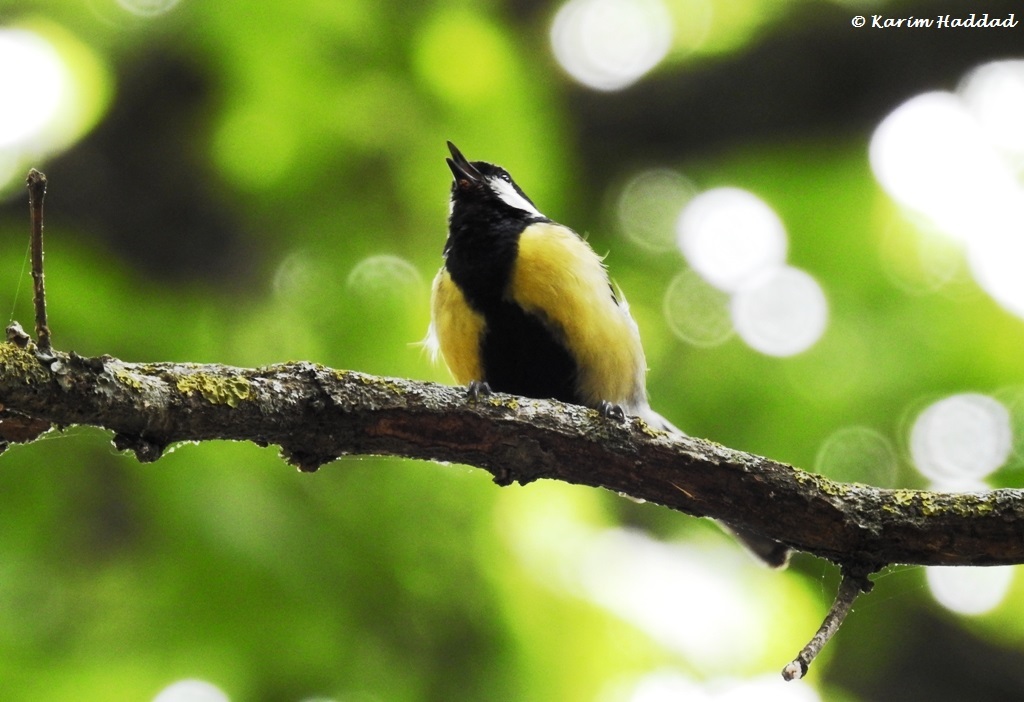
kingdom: Animalia
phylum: Chordata
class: Aves
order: Passeriformes
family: Paridae
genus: Parus
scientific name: Parus major
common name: Great tit
